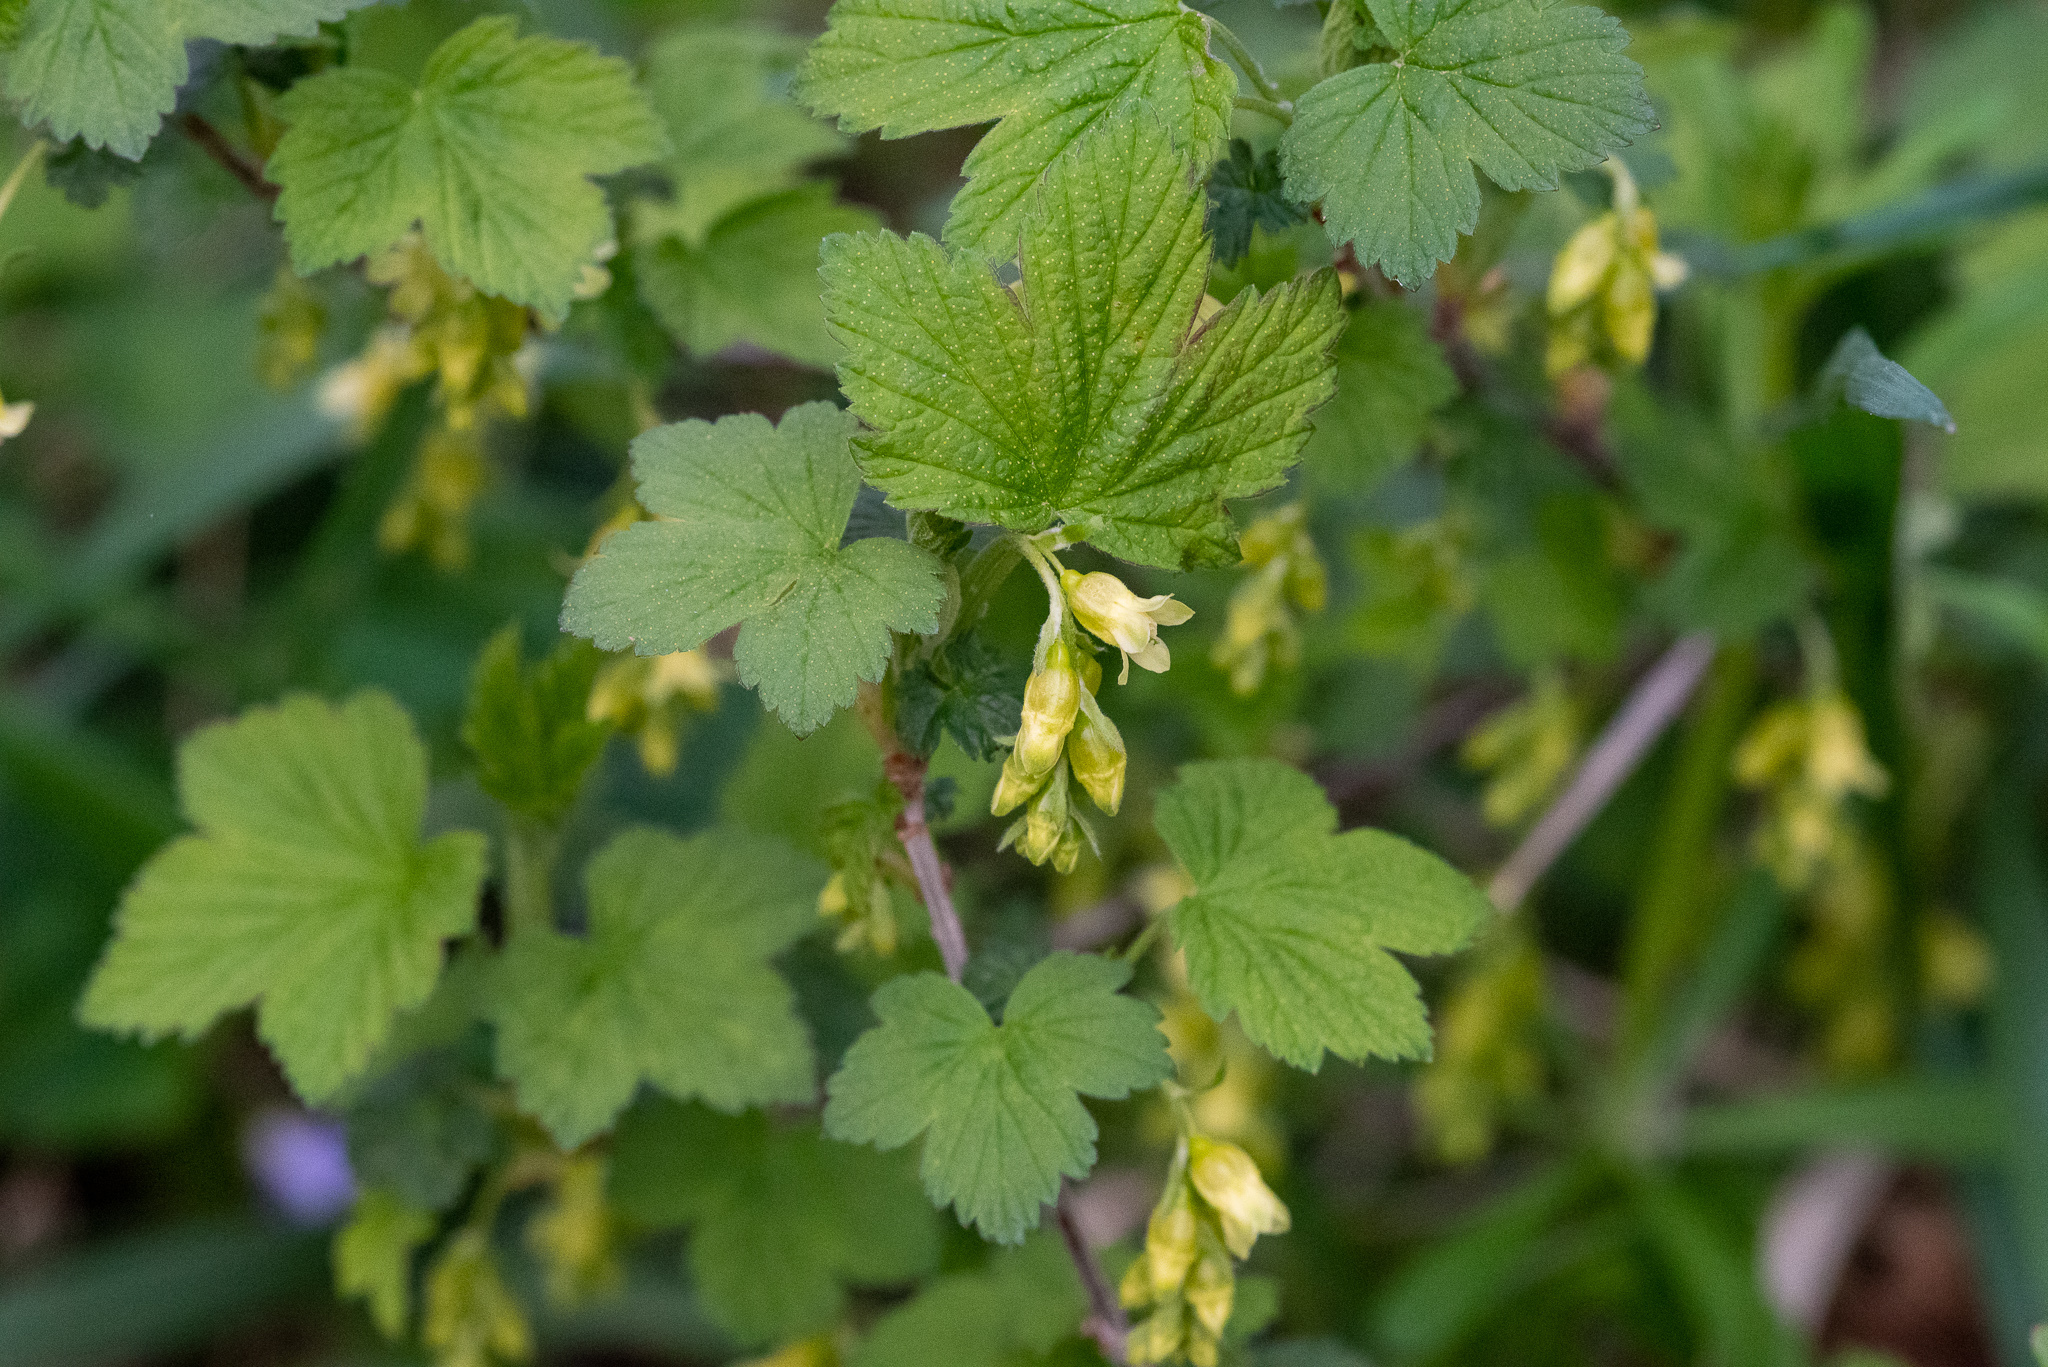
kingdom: Plantae
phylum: Tracheophyta
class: Magnoliopsida
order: Saxifragales
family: Grossulariaceae
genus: Ribes
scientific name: Ribes americanum
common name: American black currant
